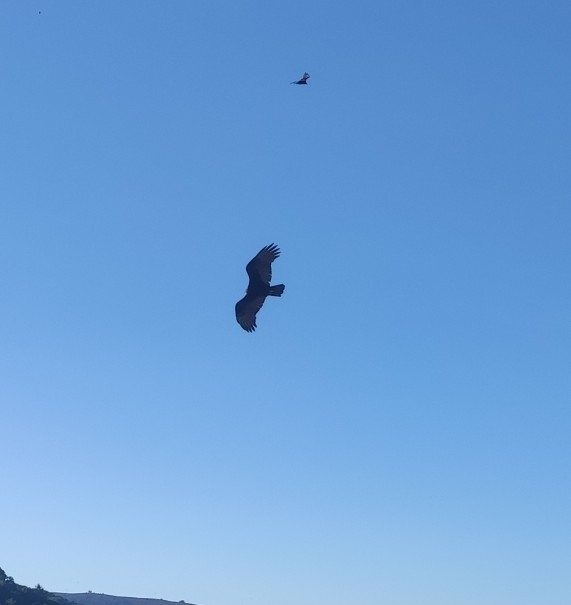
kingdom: Animalia
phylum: Chordata
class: Aves
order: Accipitriformes
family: Cathartidae
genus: Cathartes
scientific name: Cathartes aura
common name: Turkey vulture
